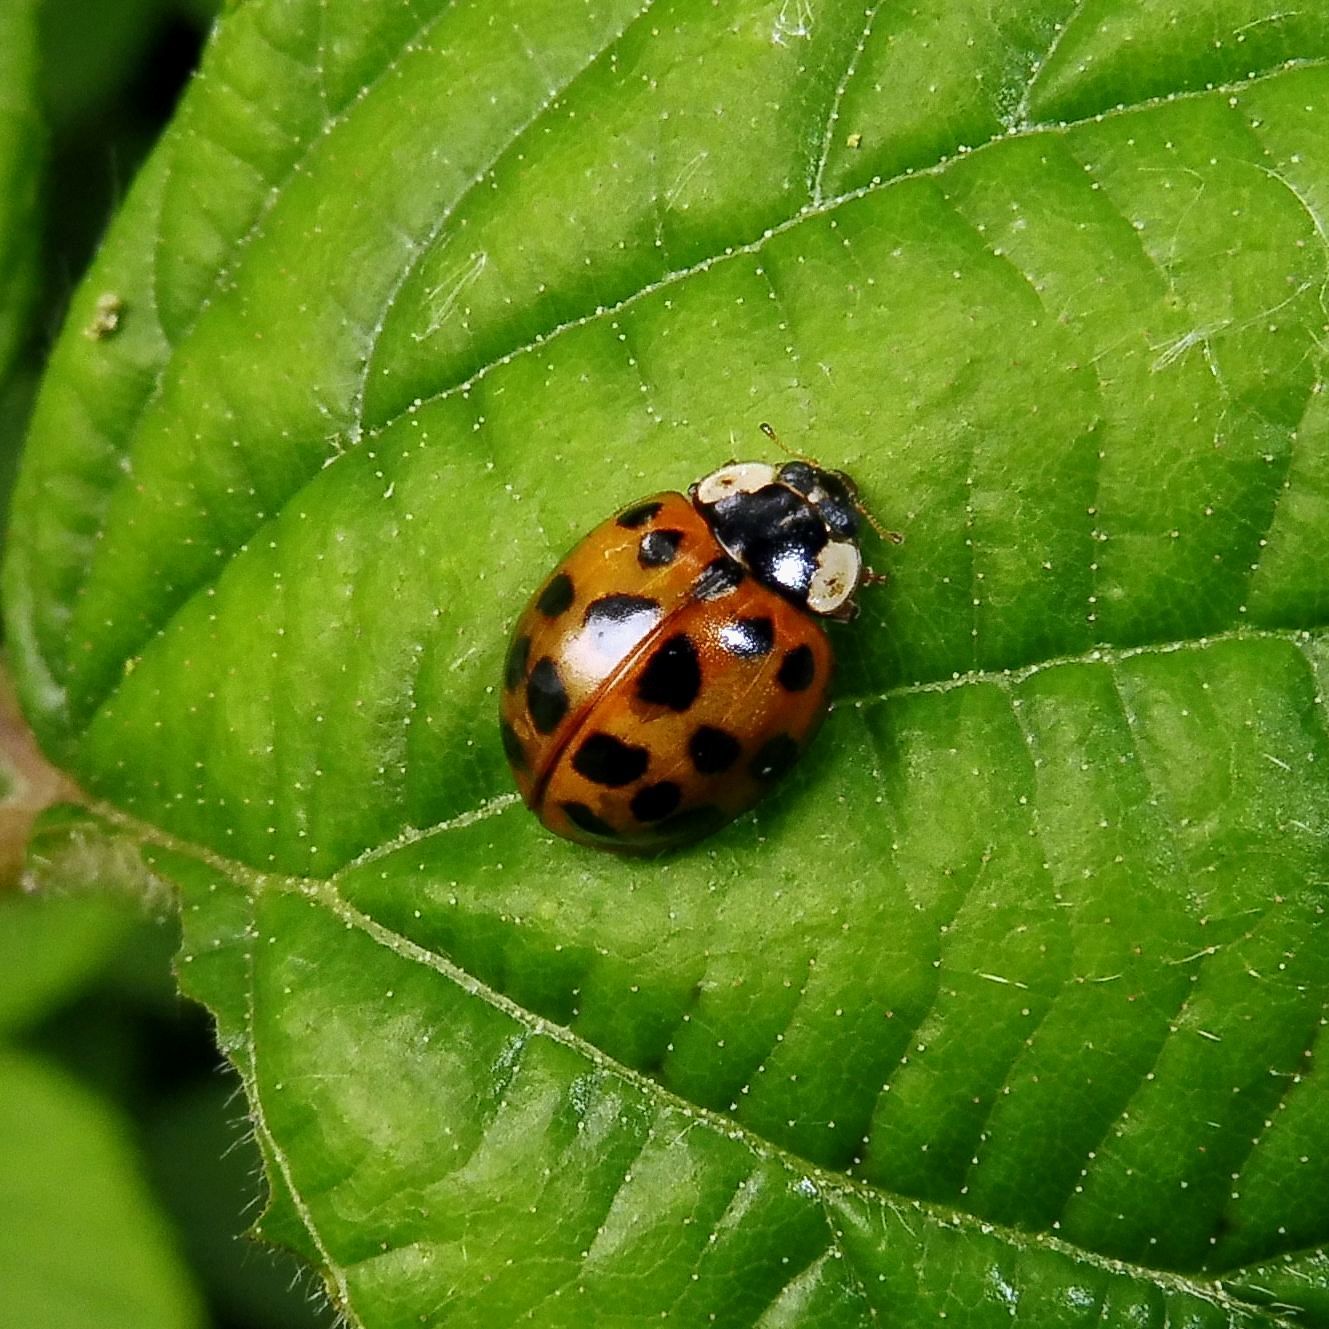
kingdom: Animalia
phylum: Arthropoda
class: Insecta
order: Coleoptera
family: Coccinellidae
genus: Harmonia
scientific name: Harmonia axyridis
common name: Harlequin ladybird
